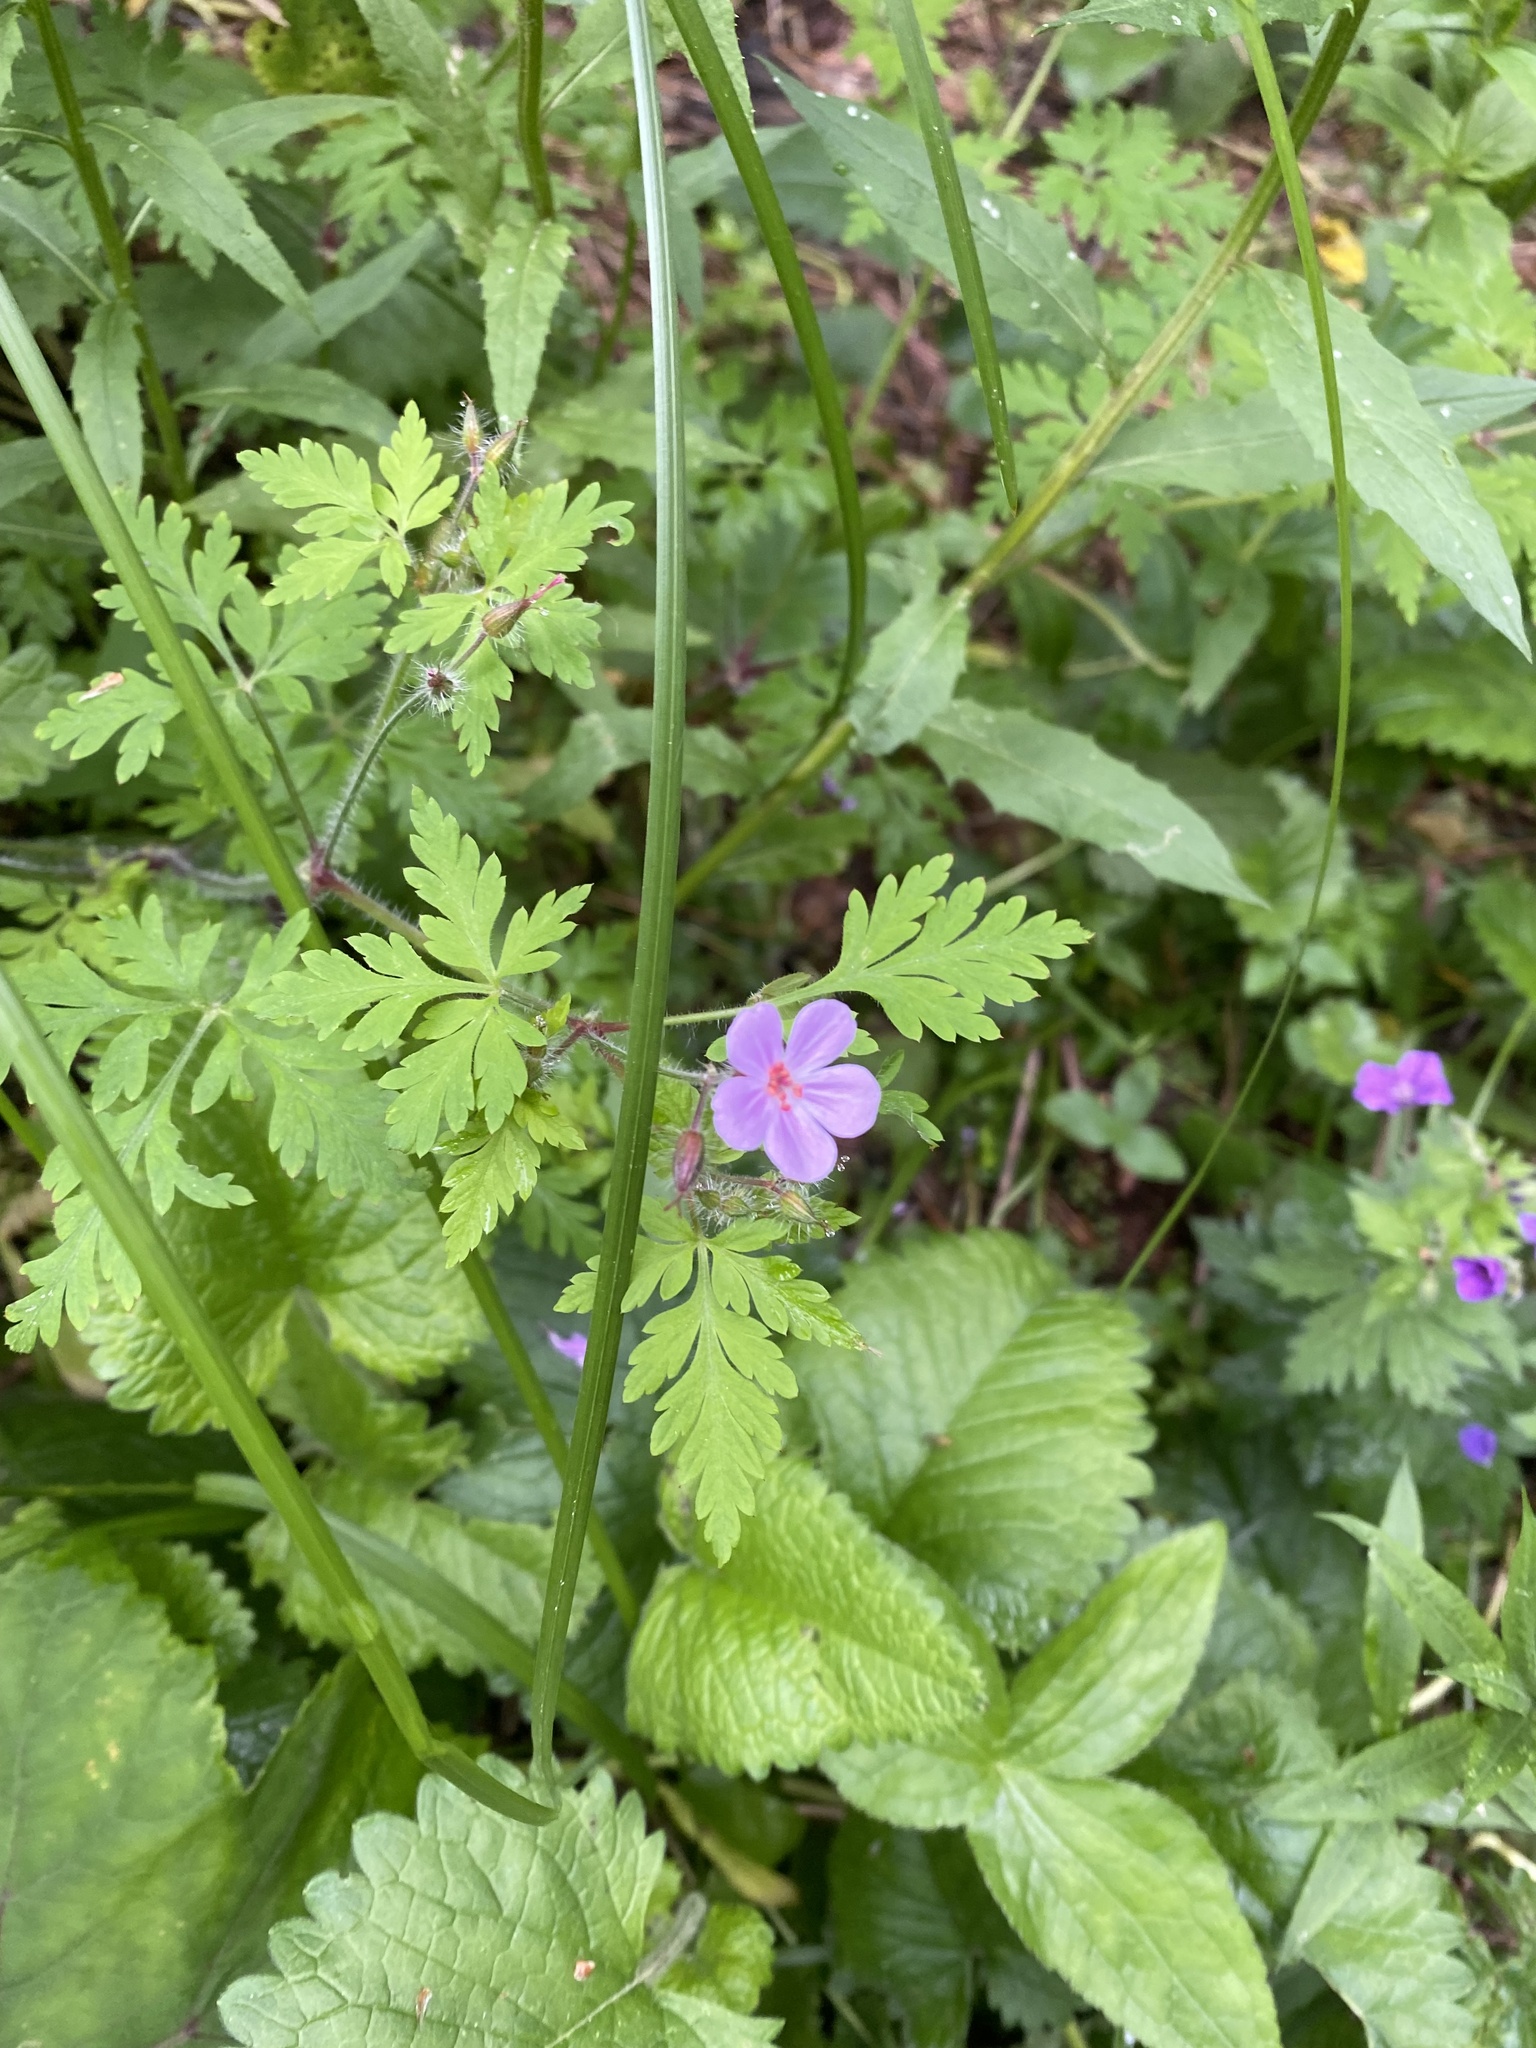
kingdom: Plantae
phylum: Tracheophyta
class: Magnoliopsida
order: Geraniales
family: Geraniaceae
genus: Geranium
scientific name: Geranium robertianum
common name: Herb-robert
